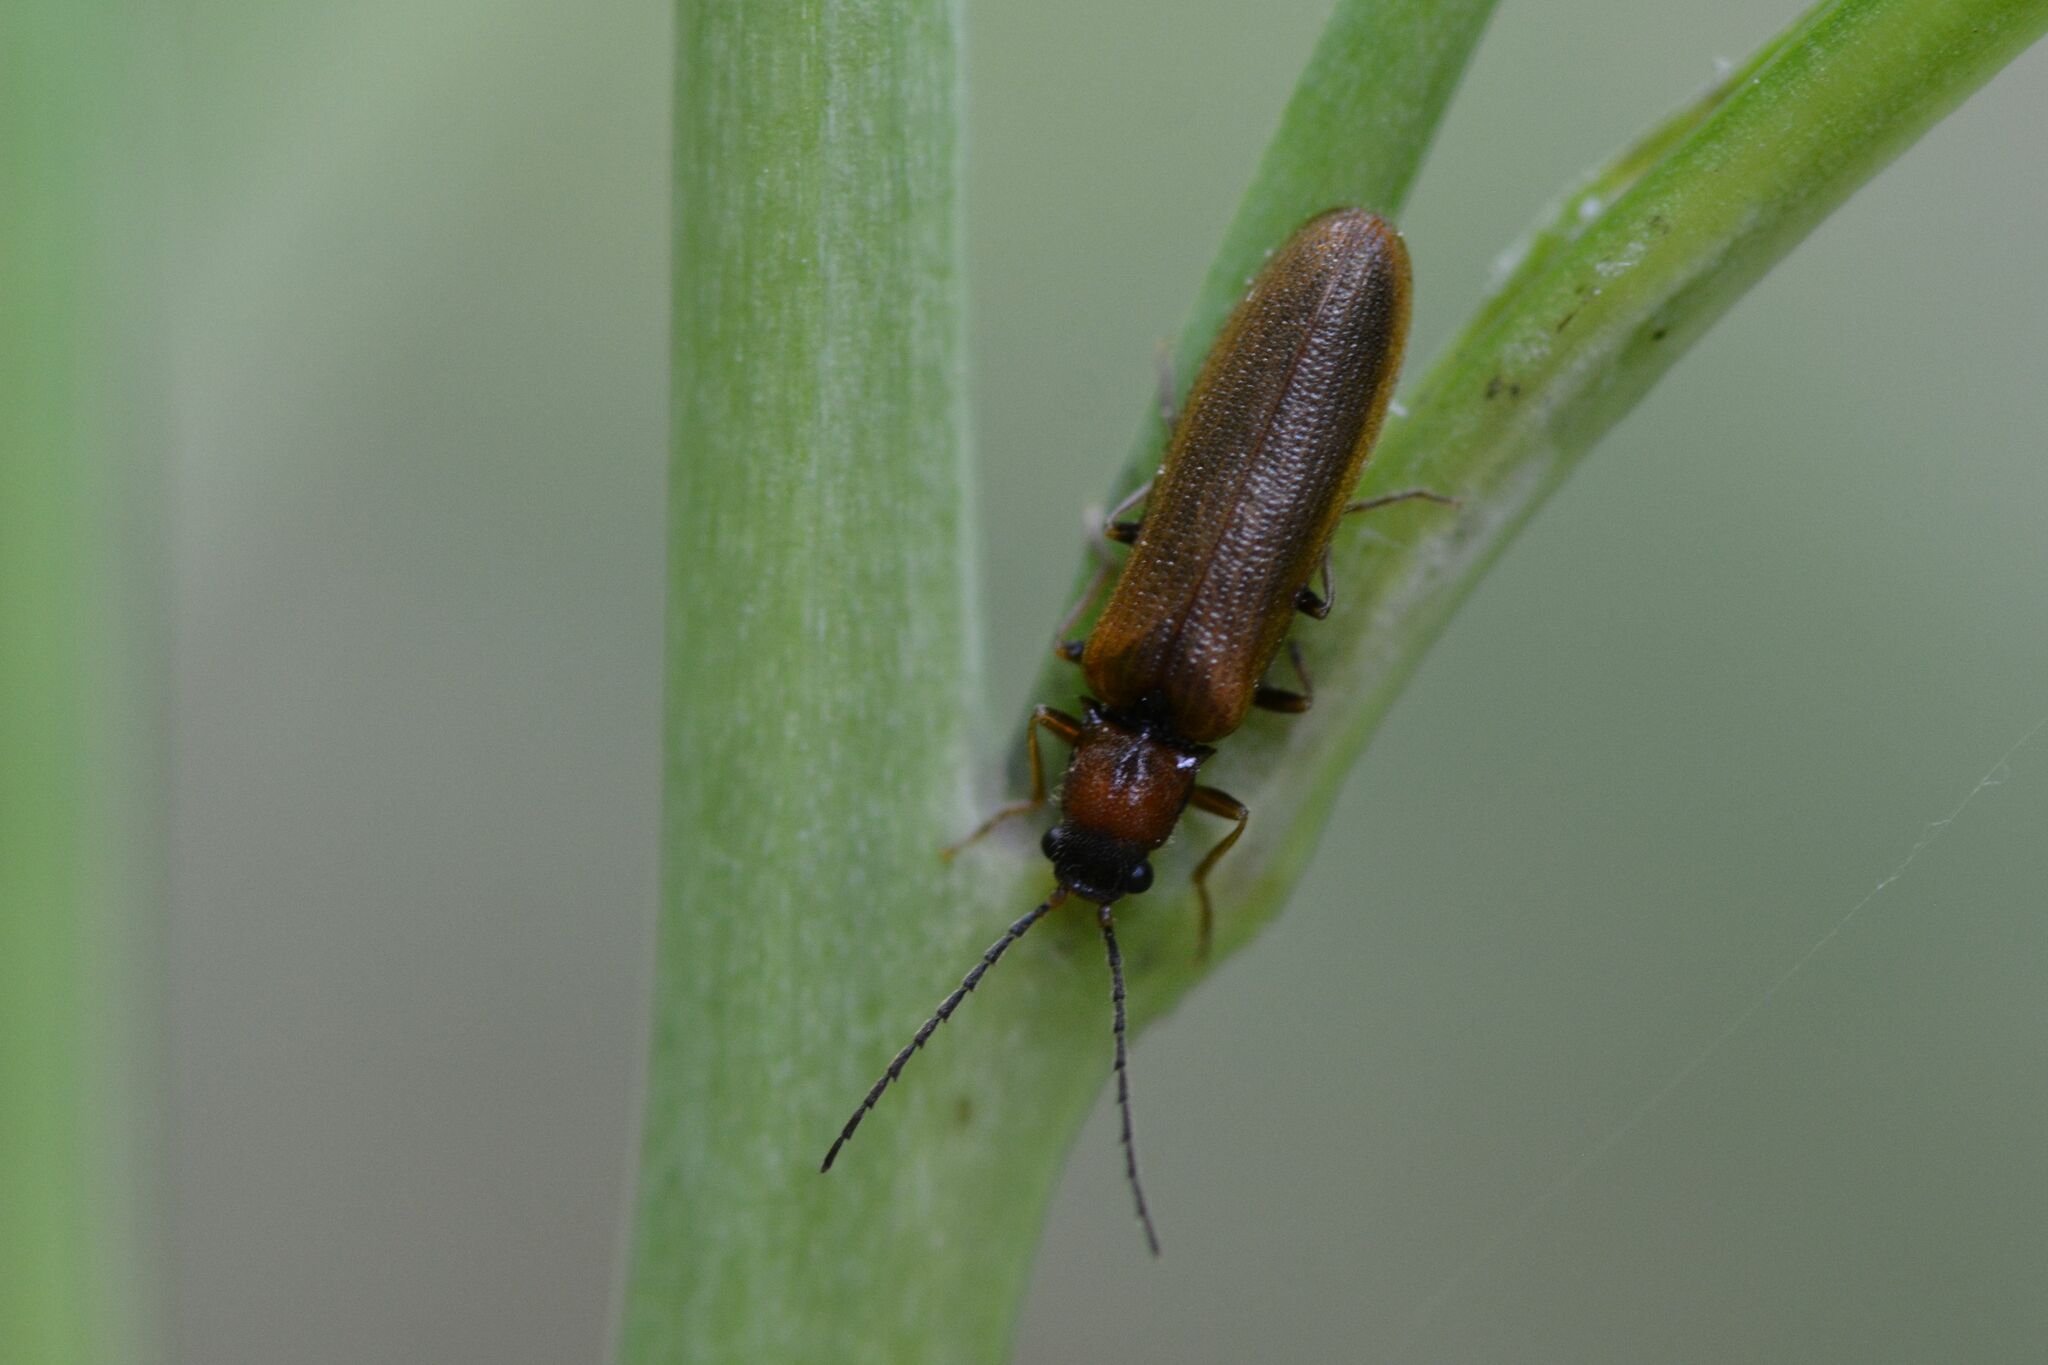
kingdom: Animalia
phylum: Arthropoda
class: Insecta
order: Coleoptera
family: Elateridae
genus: Denticollis
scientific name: Denticollis linearis
